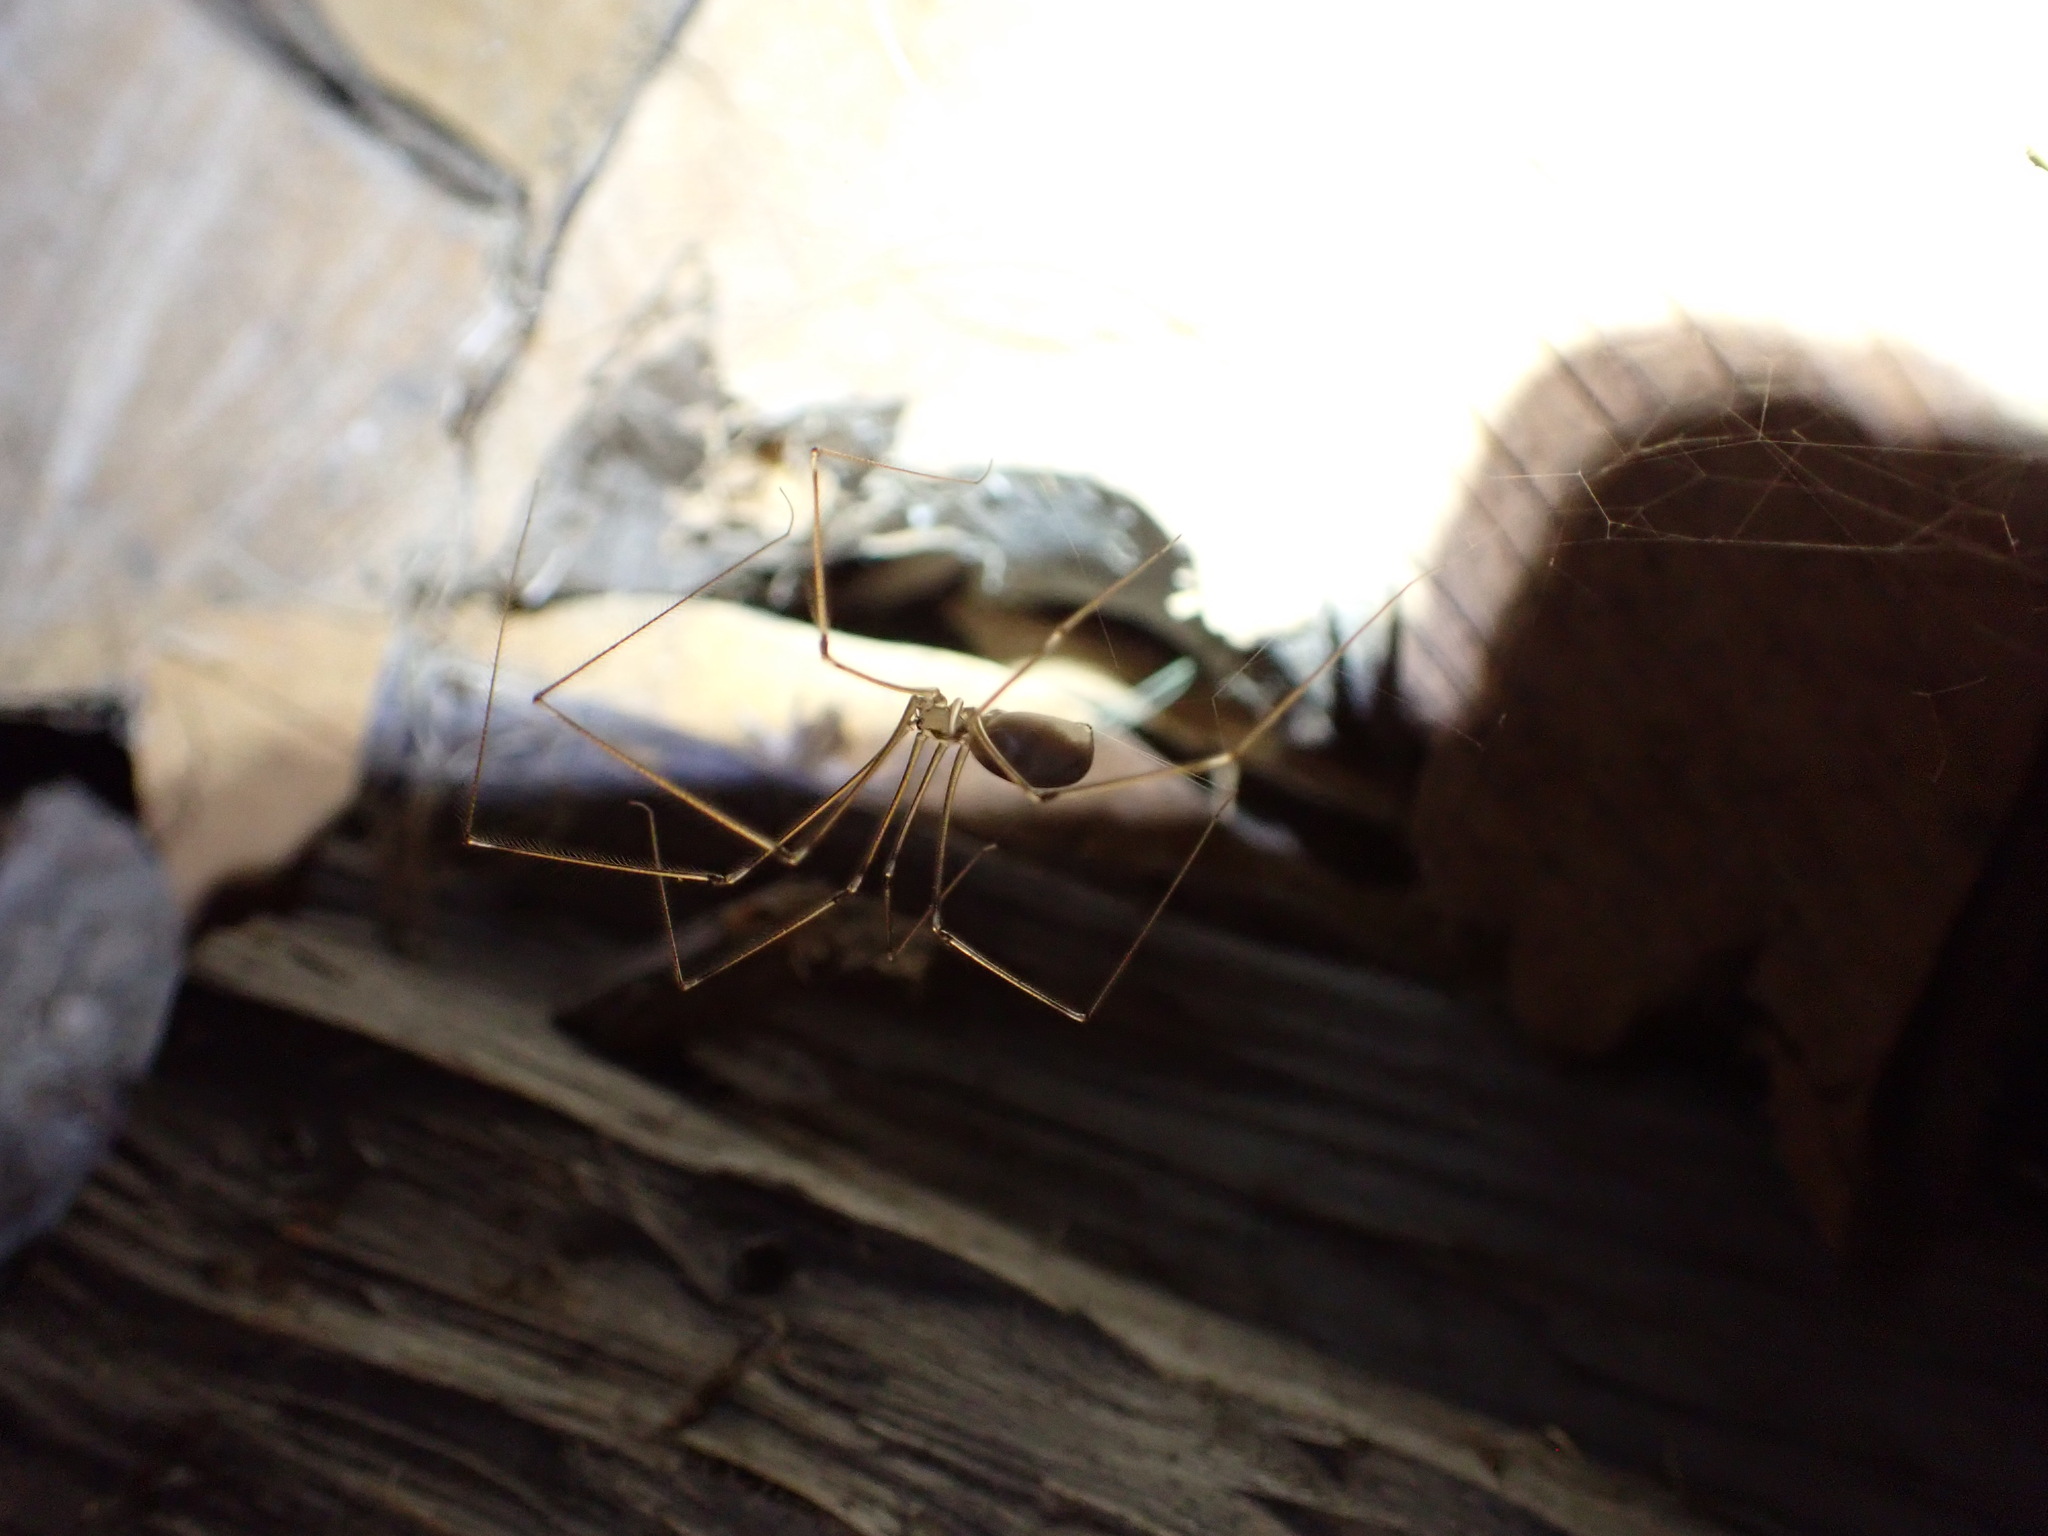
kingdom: Animalia
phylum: Arthropoda
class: Arachnida
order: Araneae
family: Pholcidae
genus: Pholcus
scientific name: Pholcus phalangioides
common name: Longbodied cellar spider
